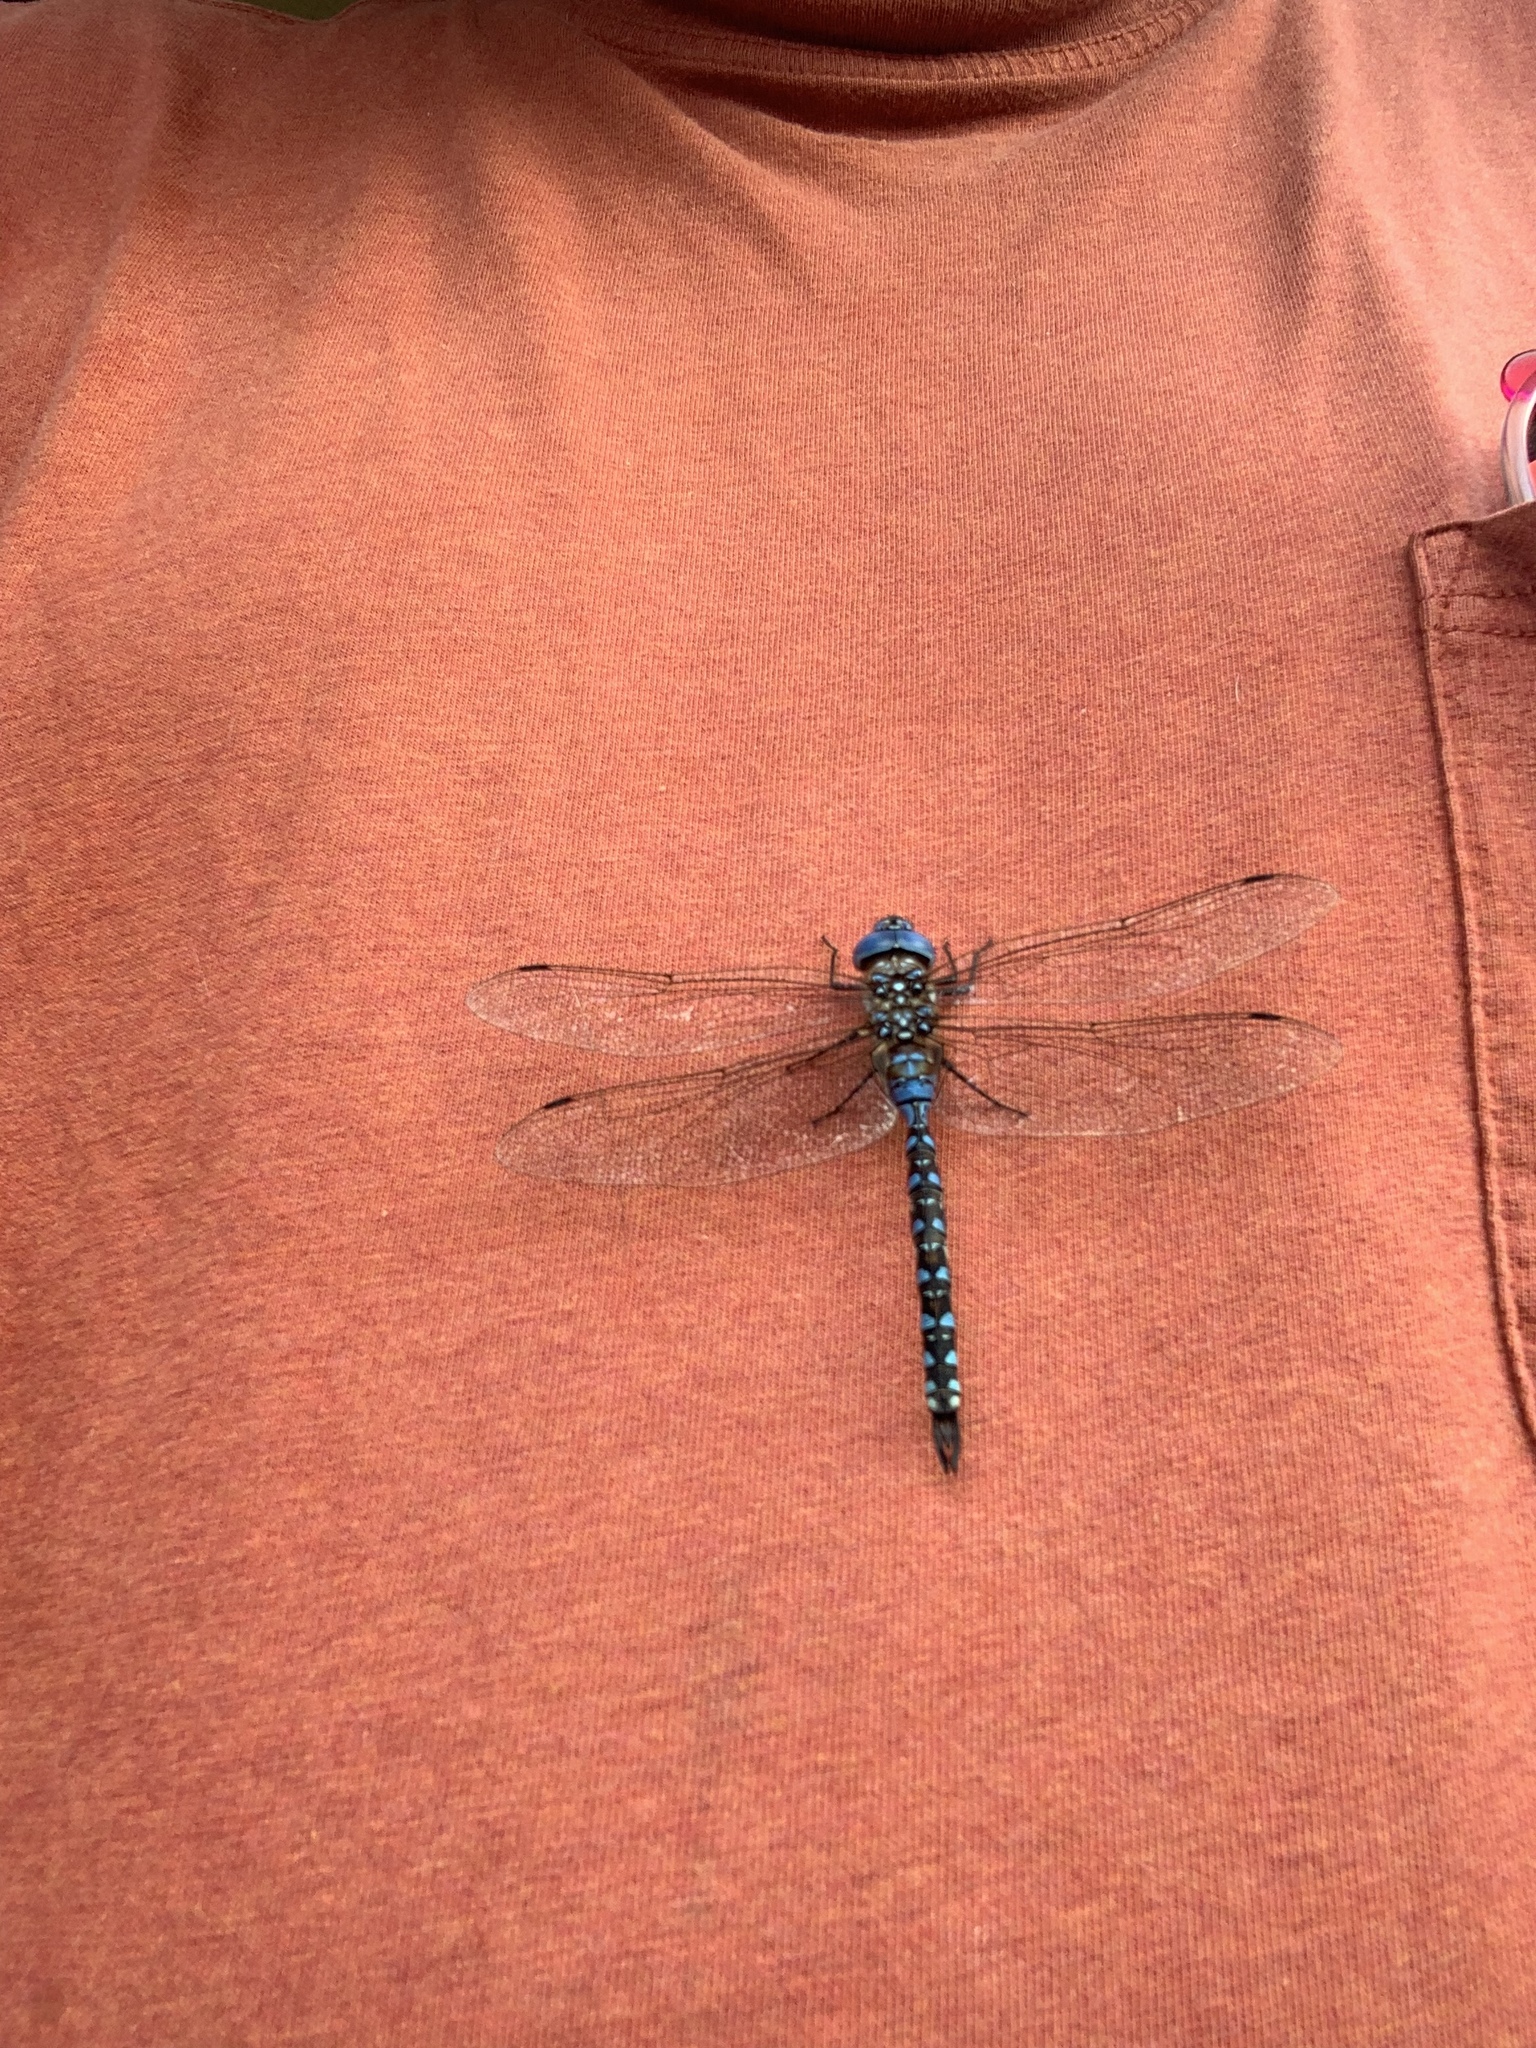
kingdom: Animalia
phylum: Arthropoda
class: Insecta
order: Odonata
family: Aeshnidae
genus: Rhionaeschna
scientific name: Rhionaeschna multicolor
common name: Blue-eyed darner
